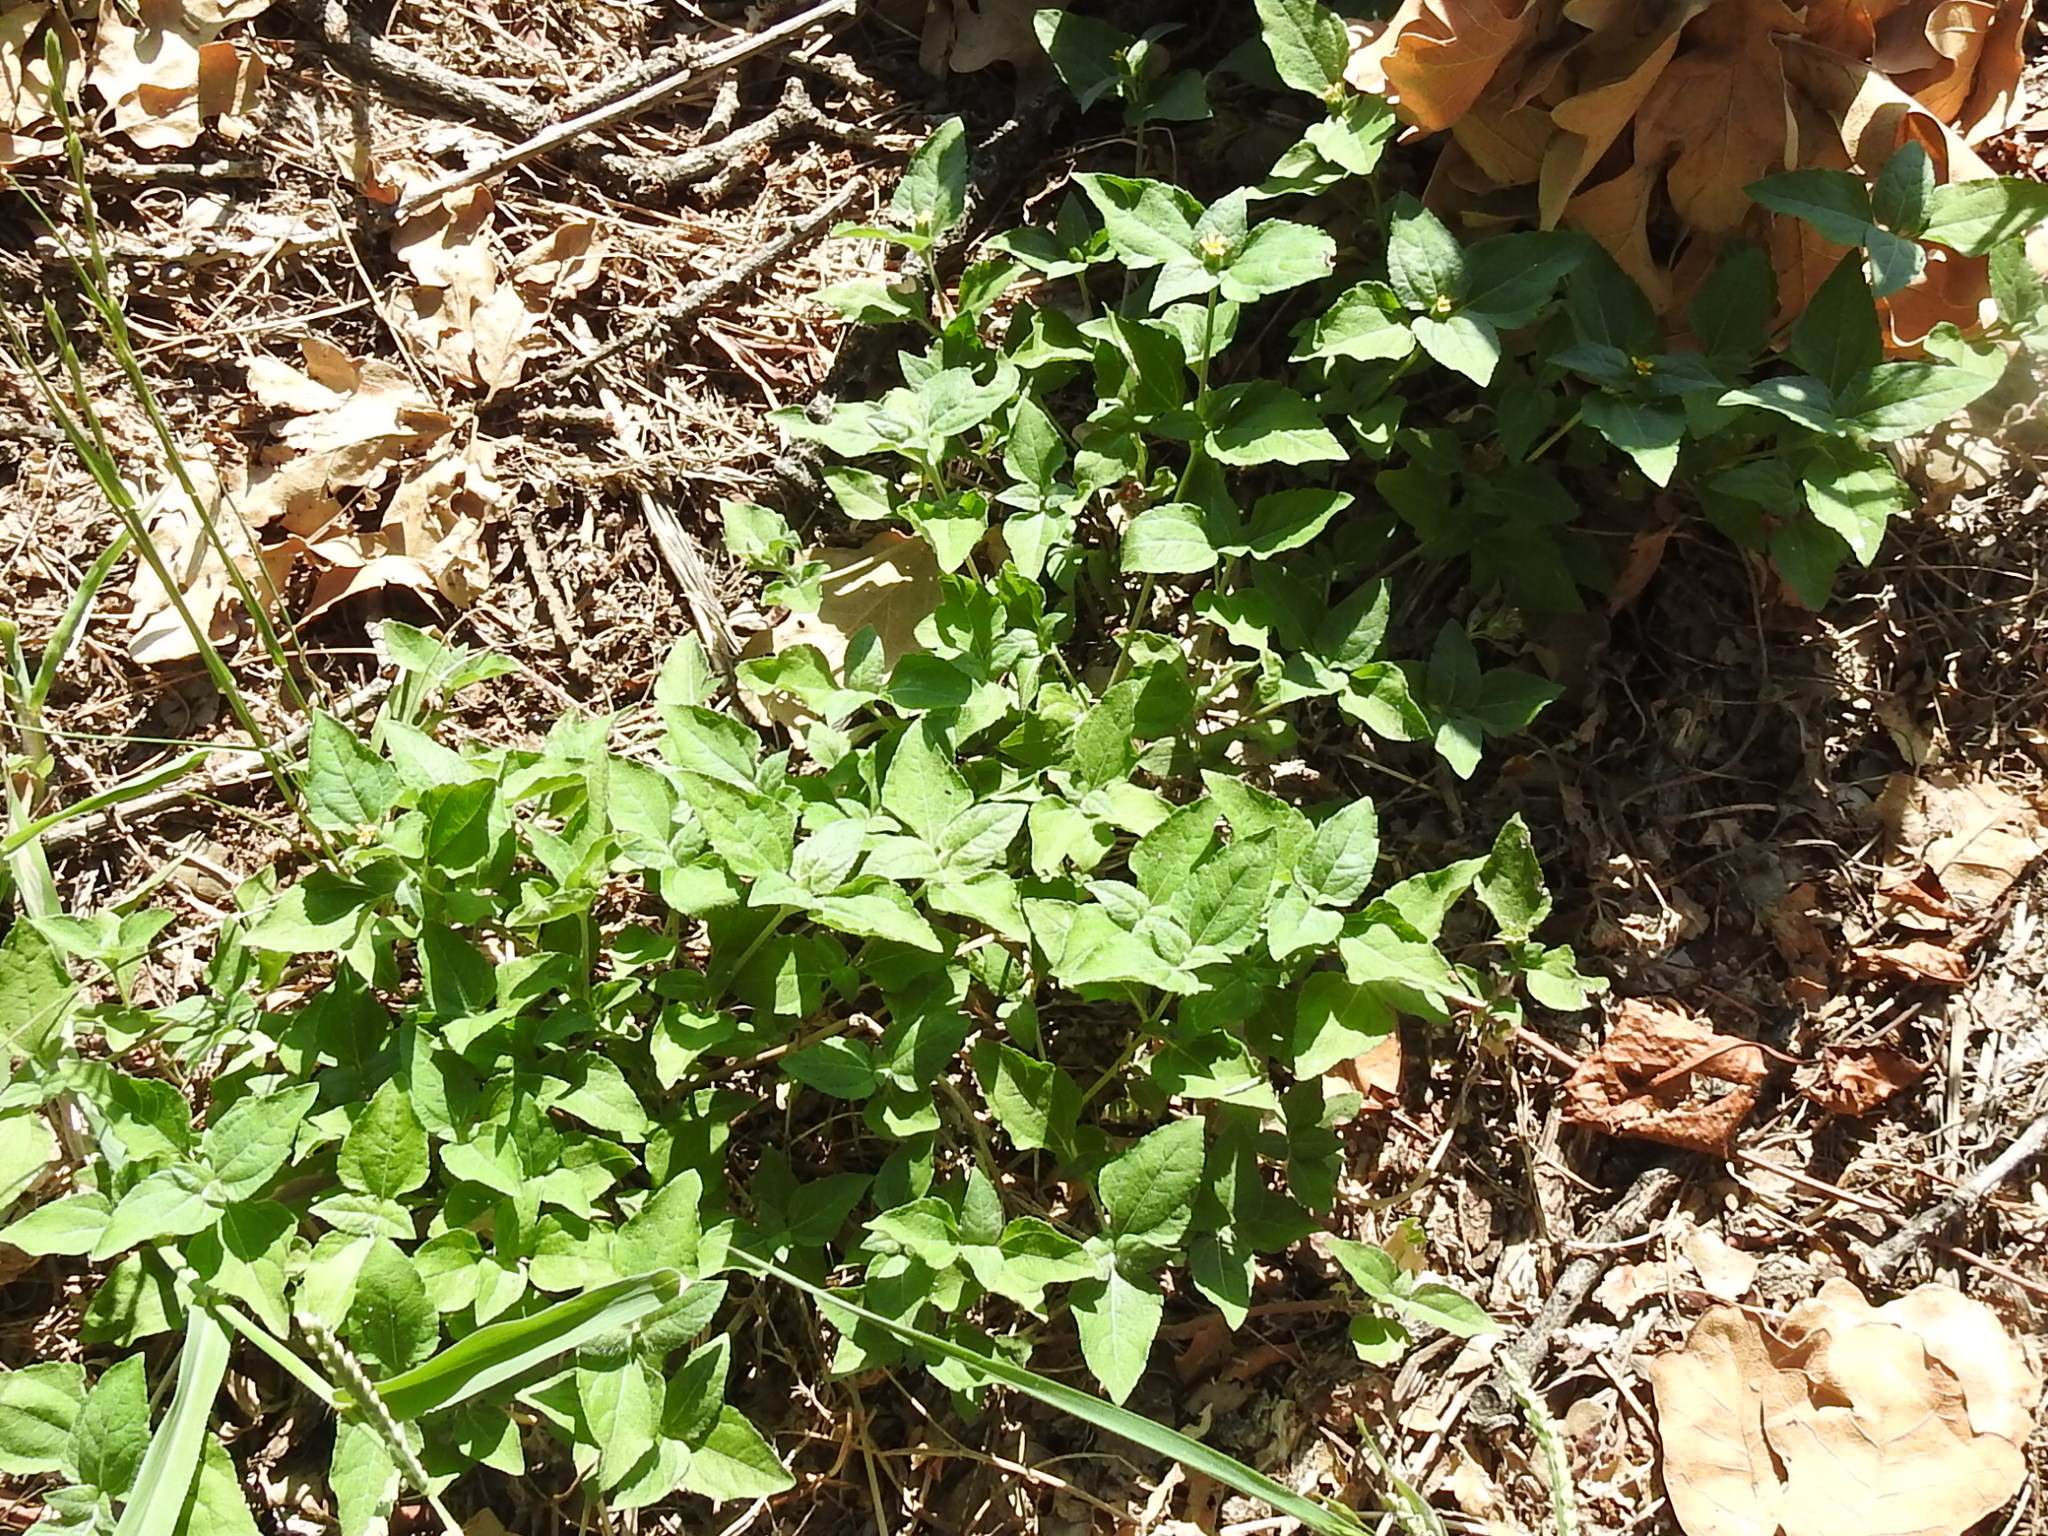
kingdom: Plantae
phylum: Tracheophyta
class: Magnoliopsida
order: Asterales
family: Asteraceae
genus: Calyptocarpus
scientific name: Calyptocarpus vialis
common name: Straggler daisy
